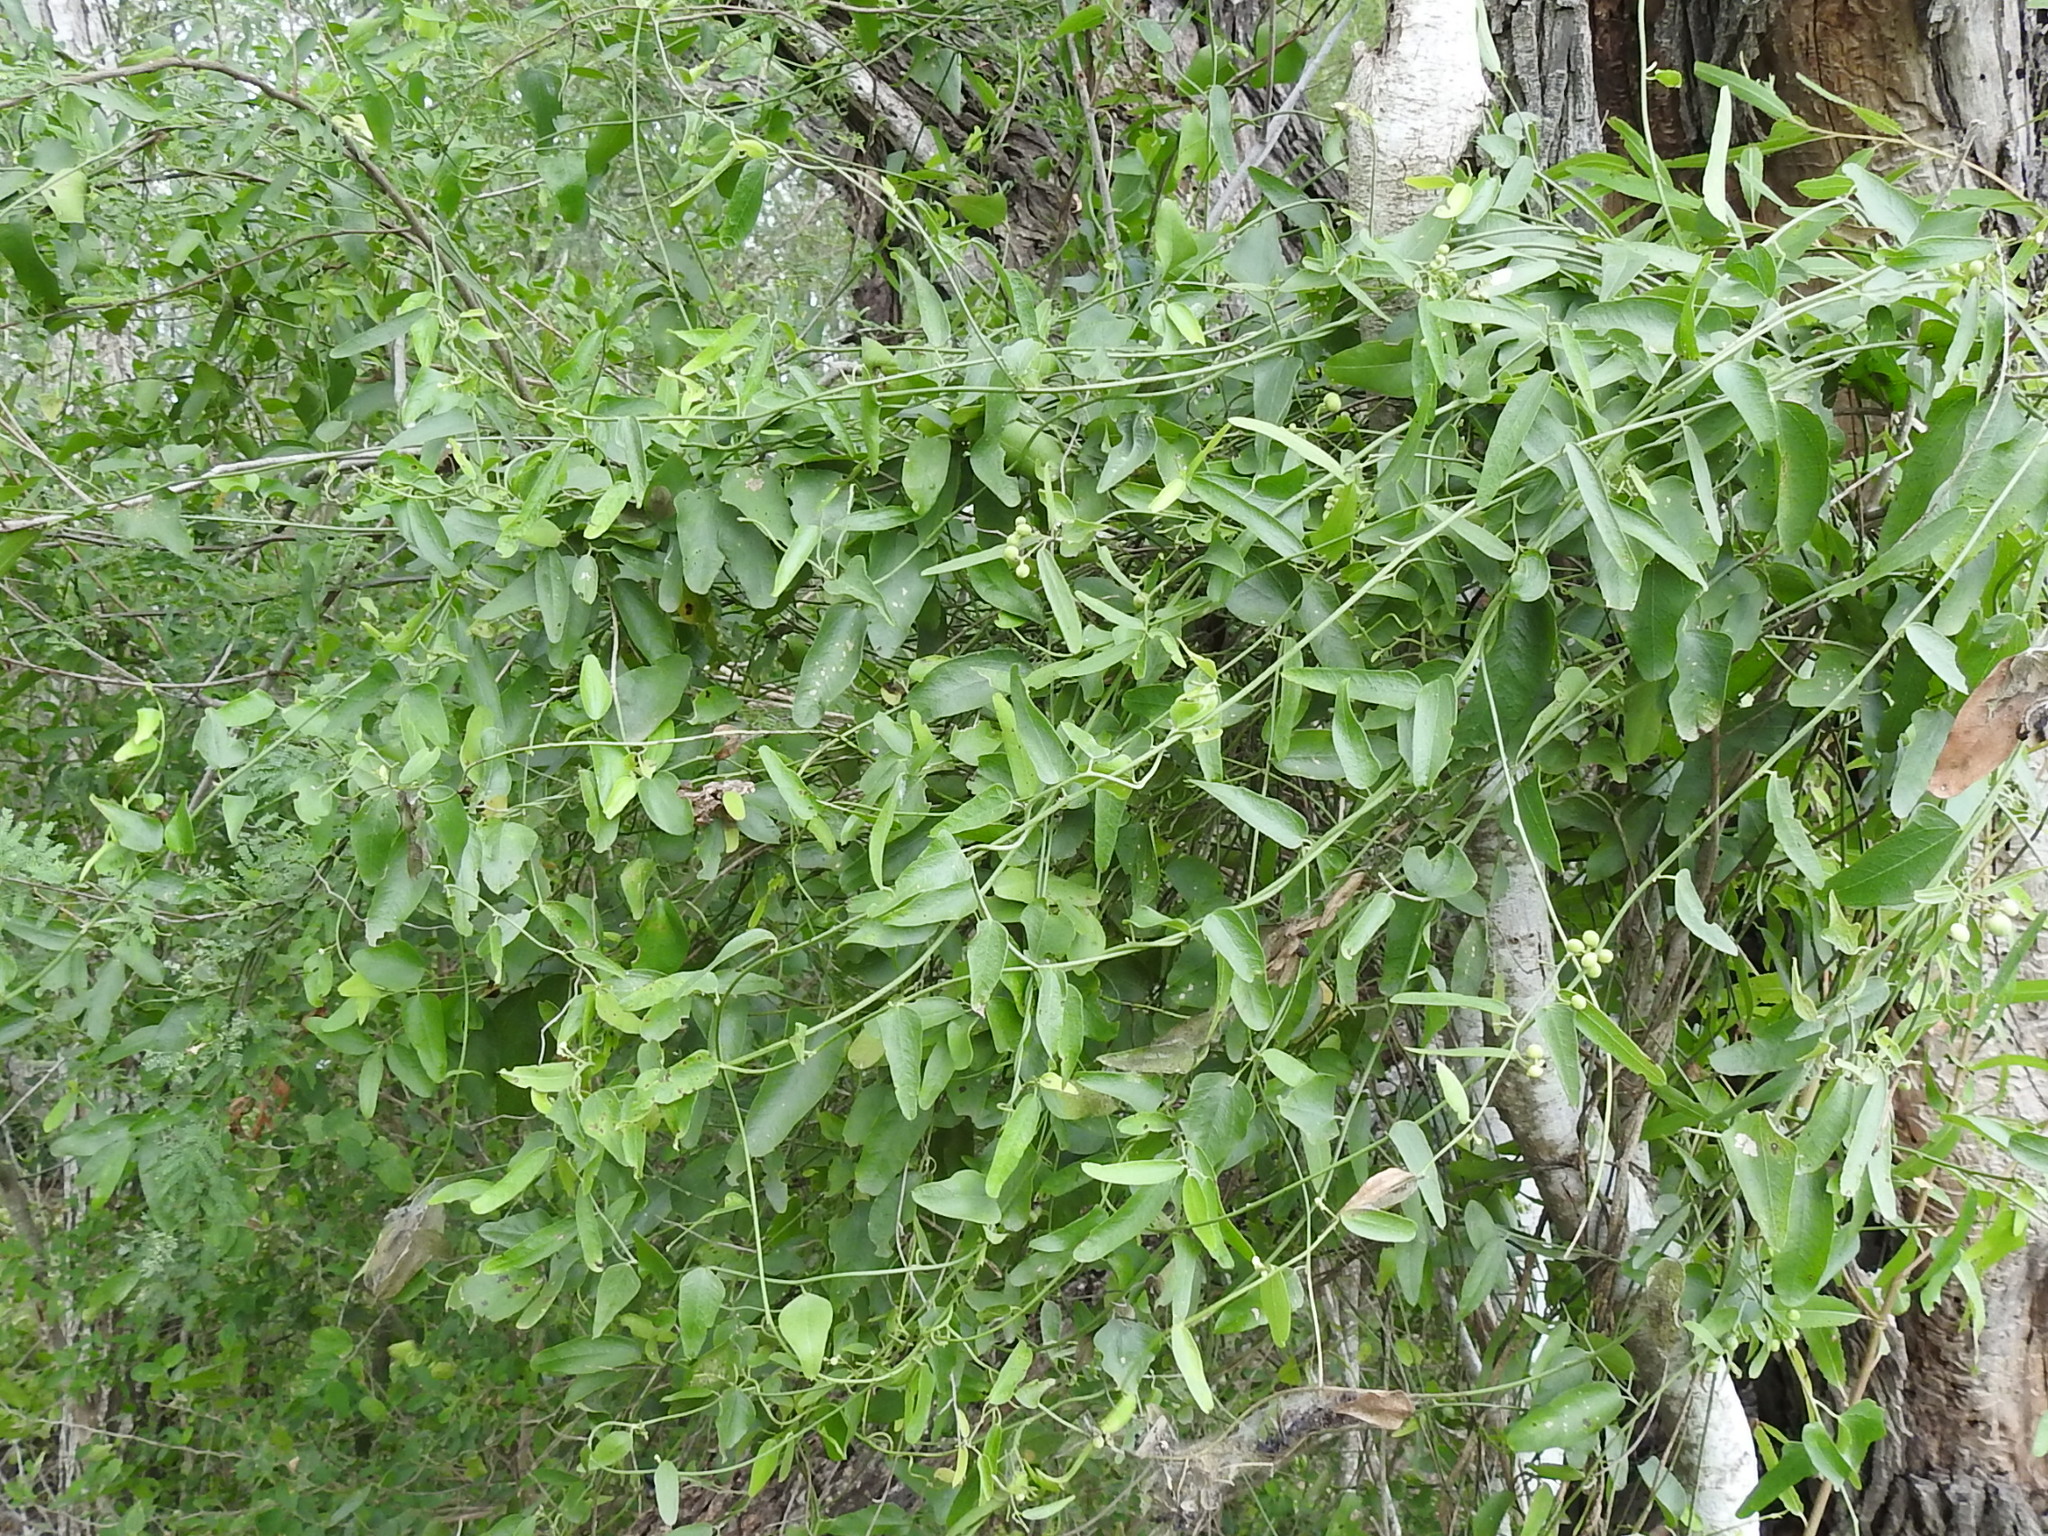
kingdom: Plantae
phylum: Tracheophyta
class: Magnoliopsida
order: Ranunculales
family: Menispermaceae
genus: Cocculus
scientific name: Cocculus diversifolius
